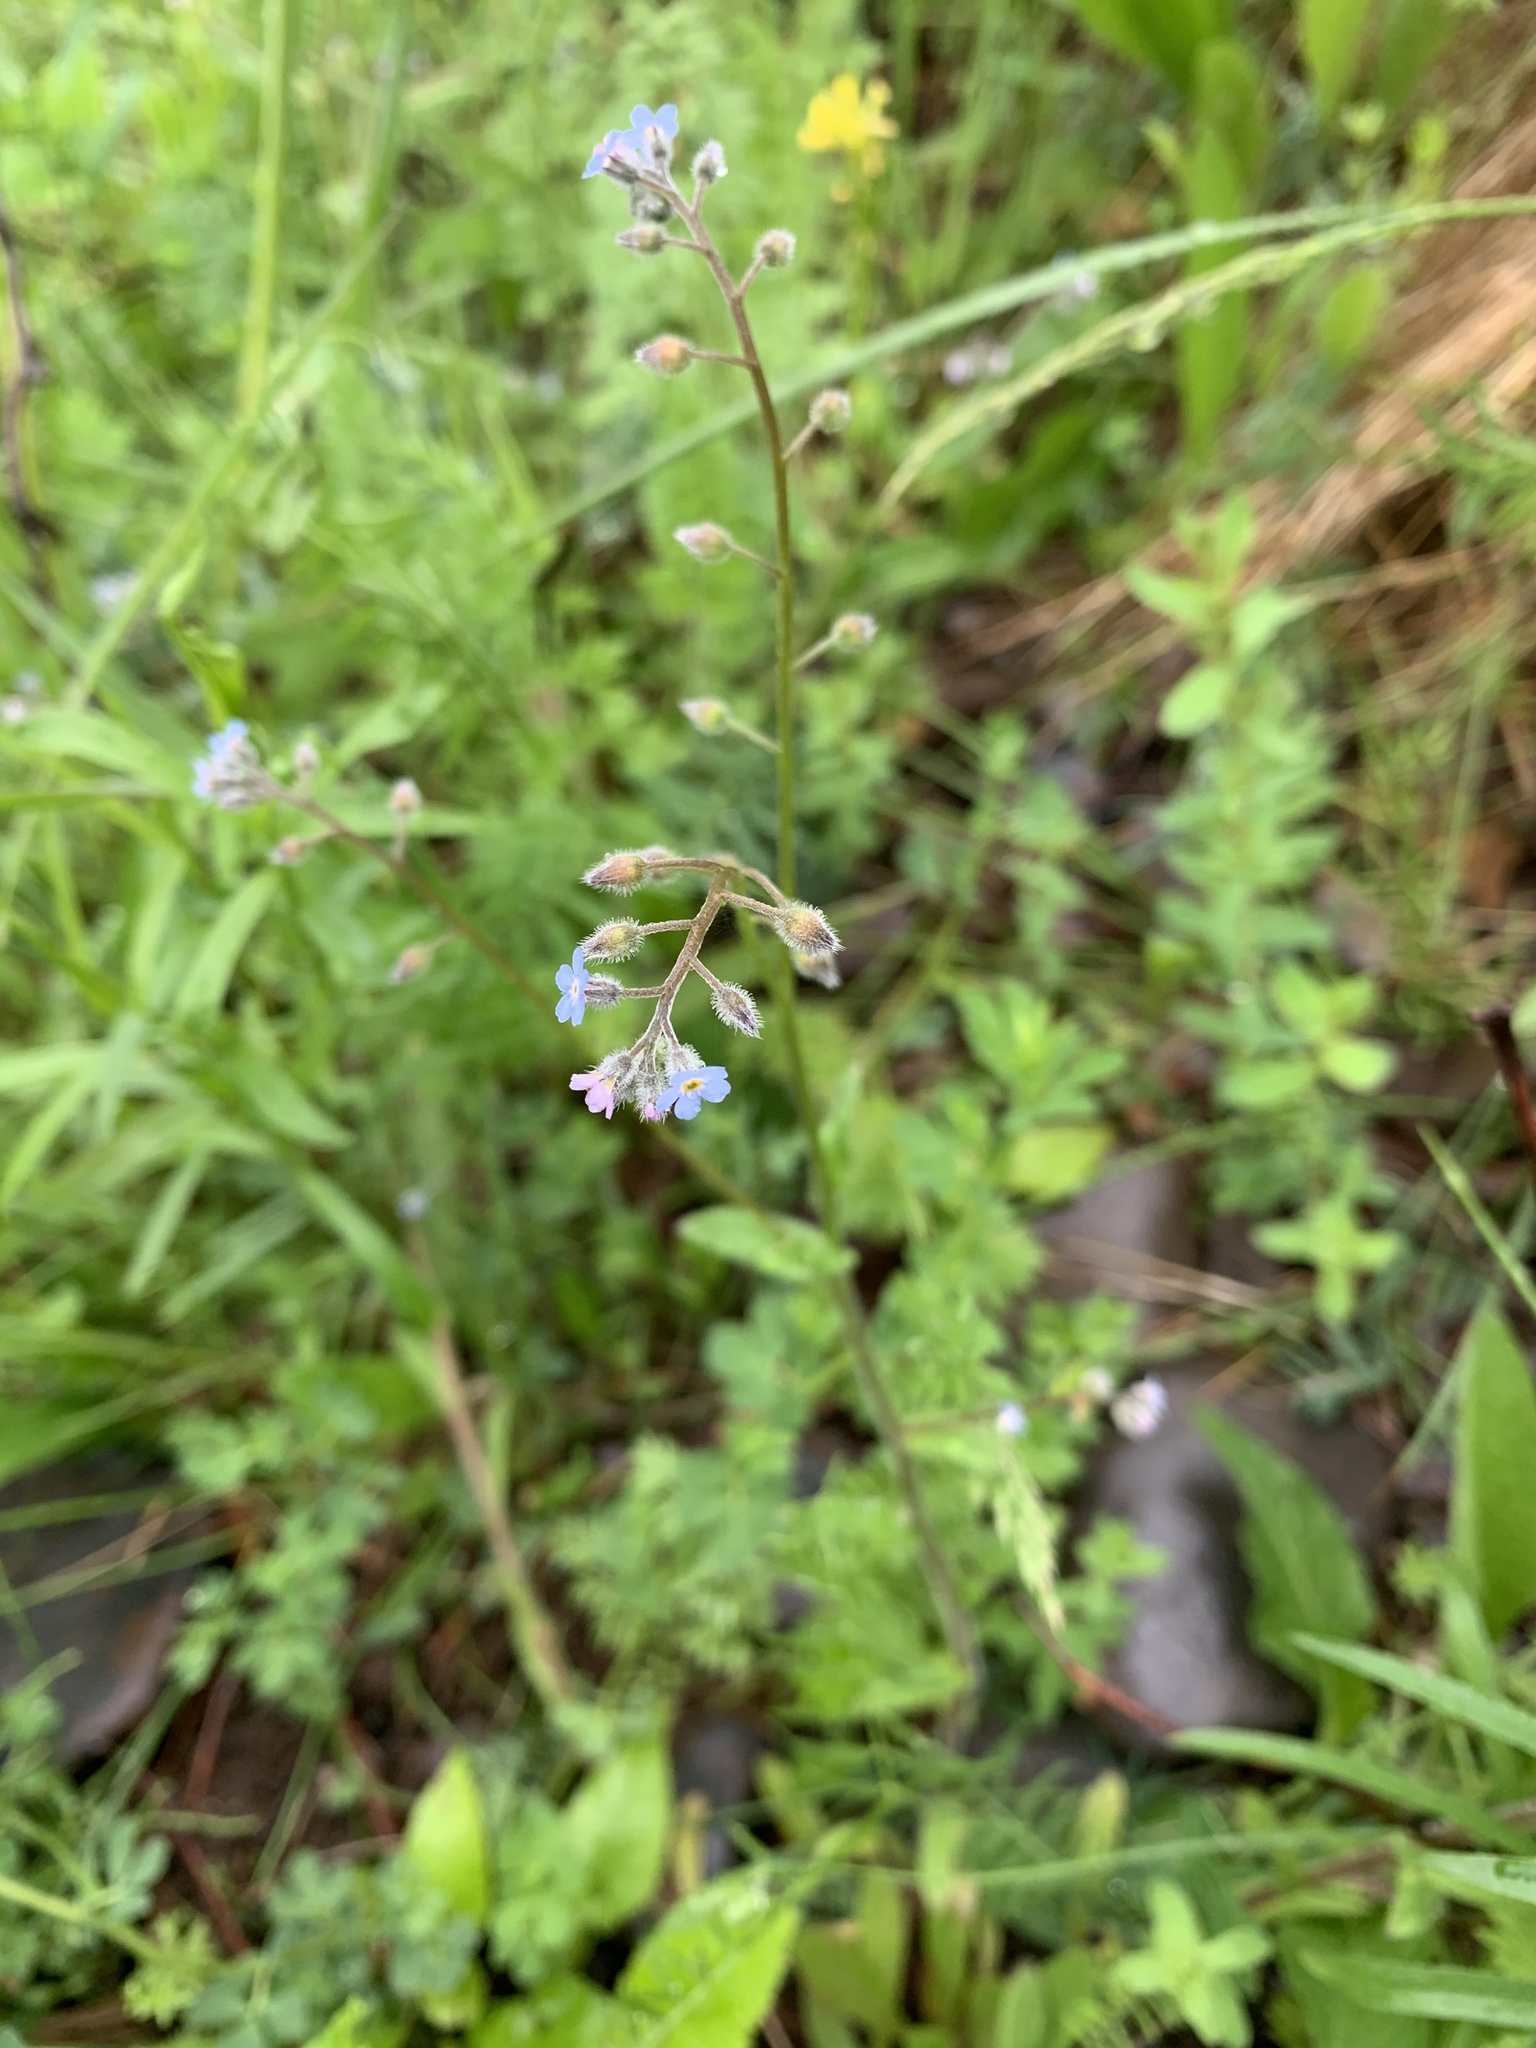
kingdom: Plantae
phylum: Tracheophyta
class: Magnoliopsida
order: Boraginales
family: Boraginaceae
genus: Myosotis
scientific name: Myosotis arvensis
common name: Field forget-me-not
